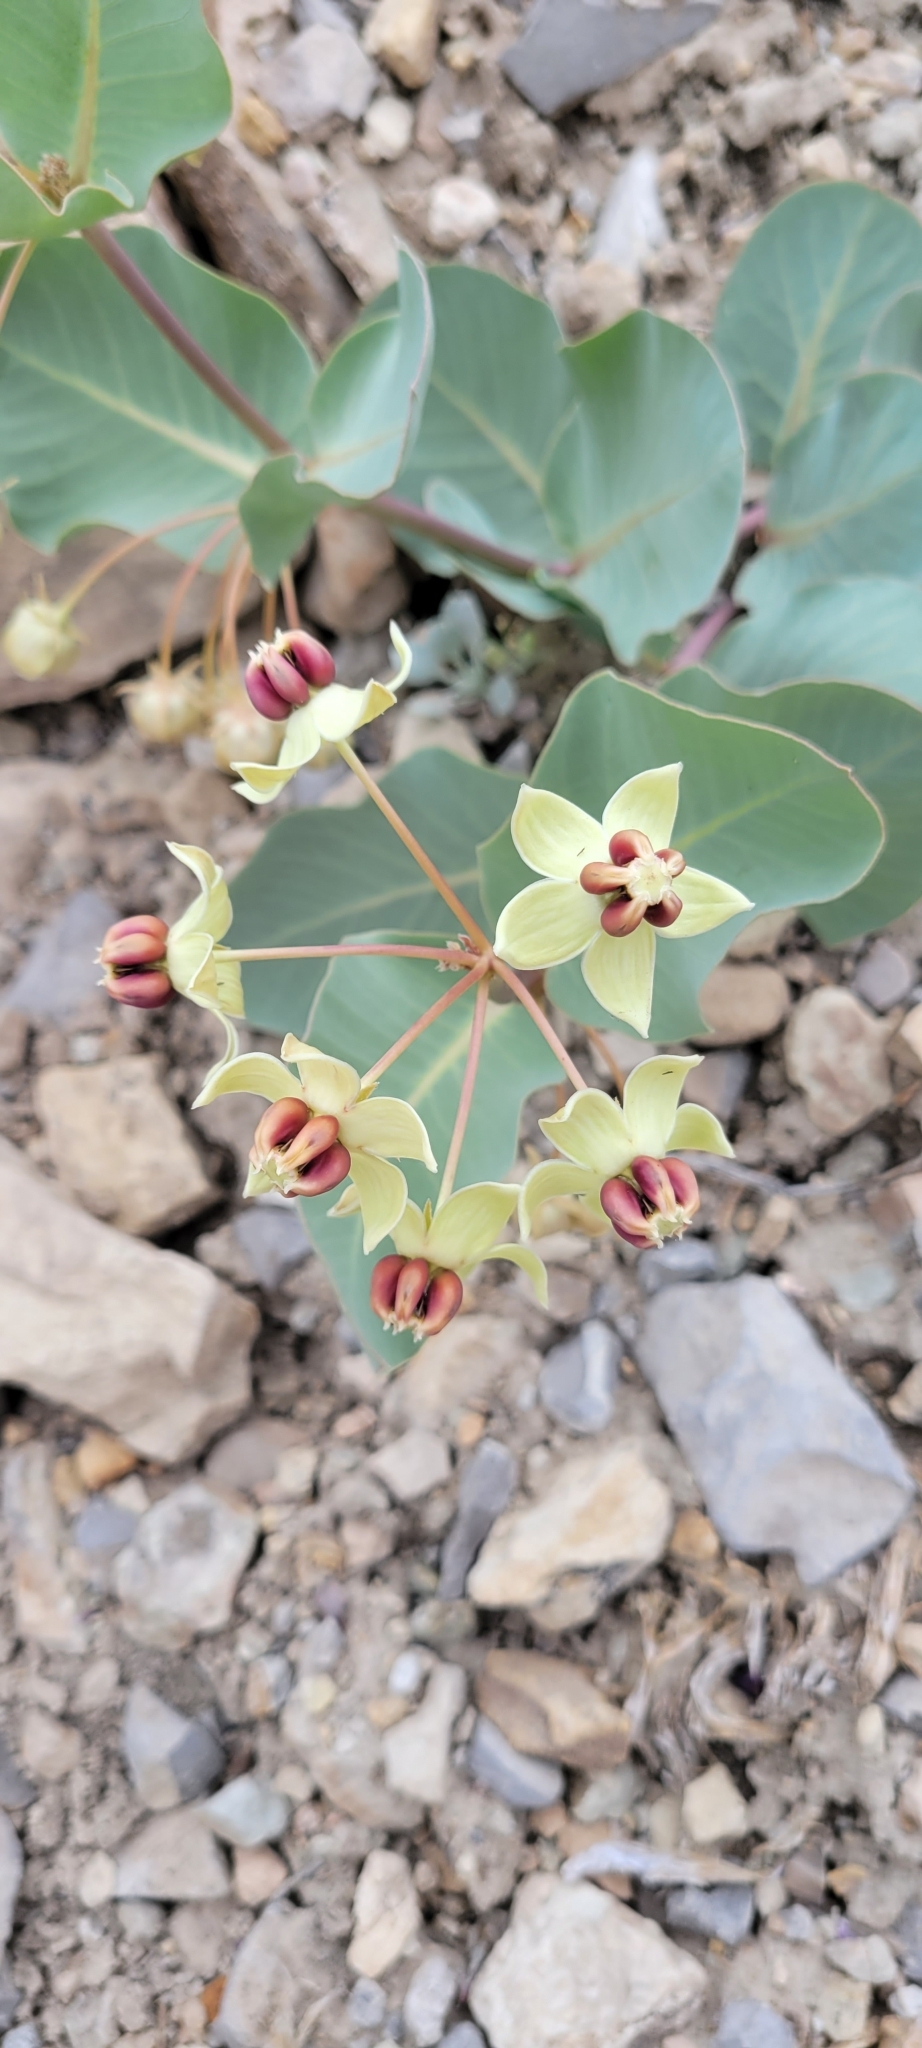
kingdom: Plantae
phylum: Tracheophyta
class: Magnoliopsida
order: Gentianales
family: Apocynaceae
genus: Asclepias
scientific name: Asclepias cryptoceras
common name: Humboldt mountains milkweed
